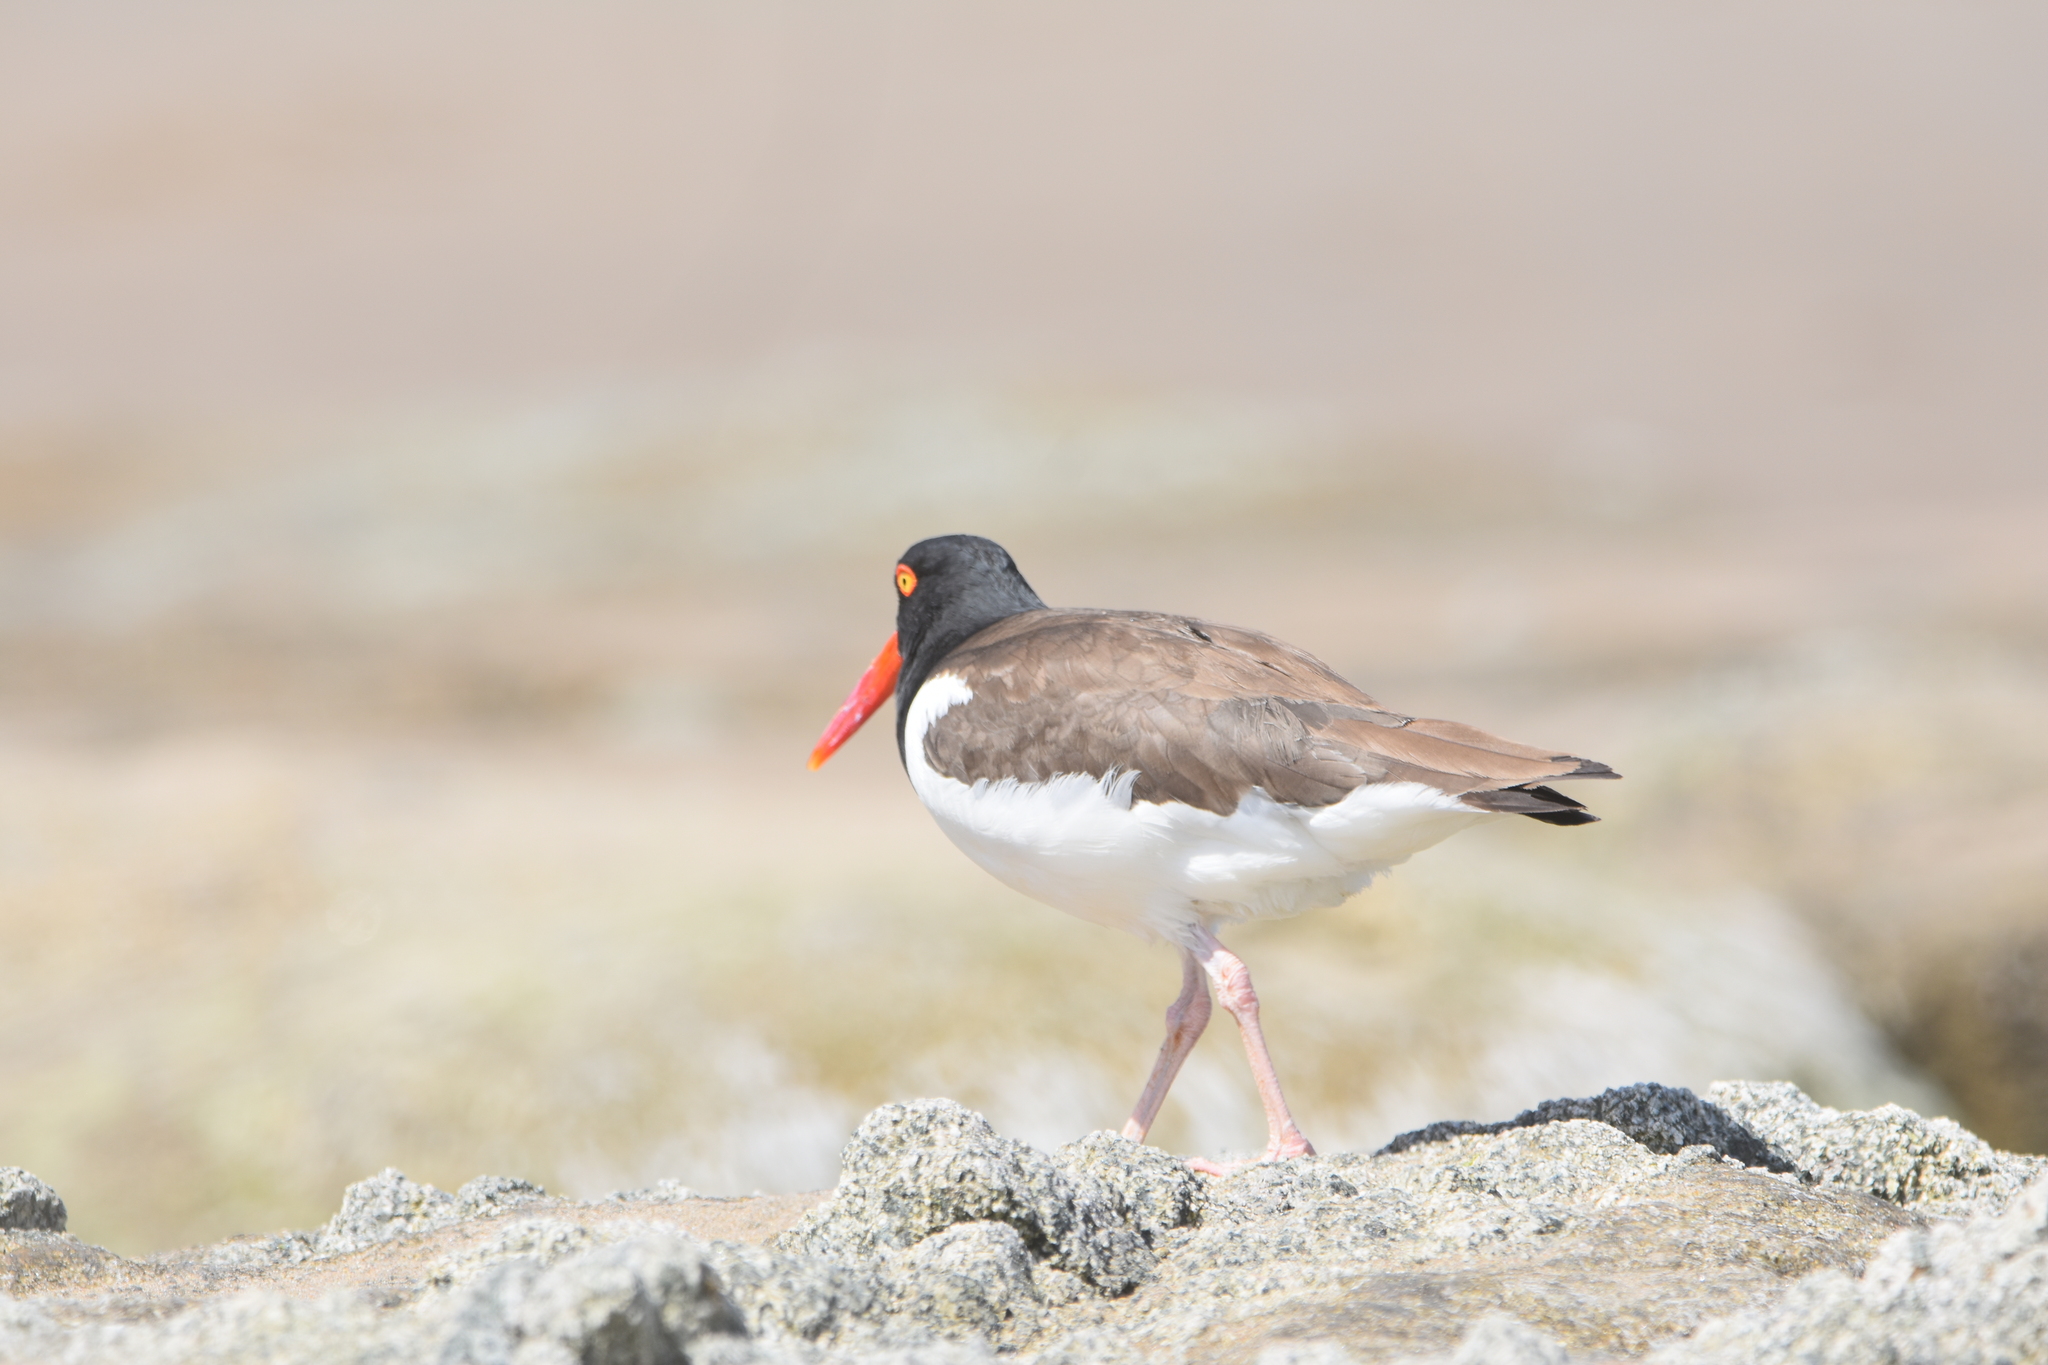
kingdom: Animalia
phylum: Chordata
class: Aves
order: Charadriiformes
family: Haematopodidae
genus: Haematopus
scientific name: Haematopus palliatus
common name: American oystercatcher
